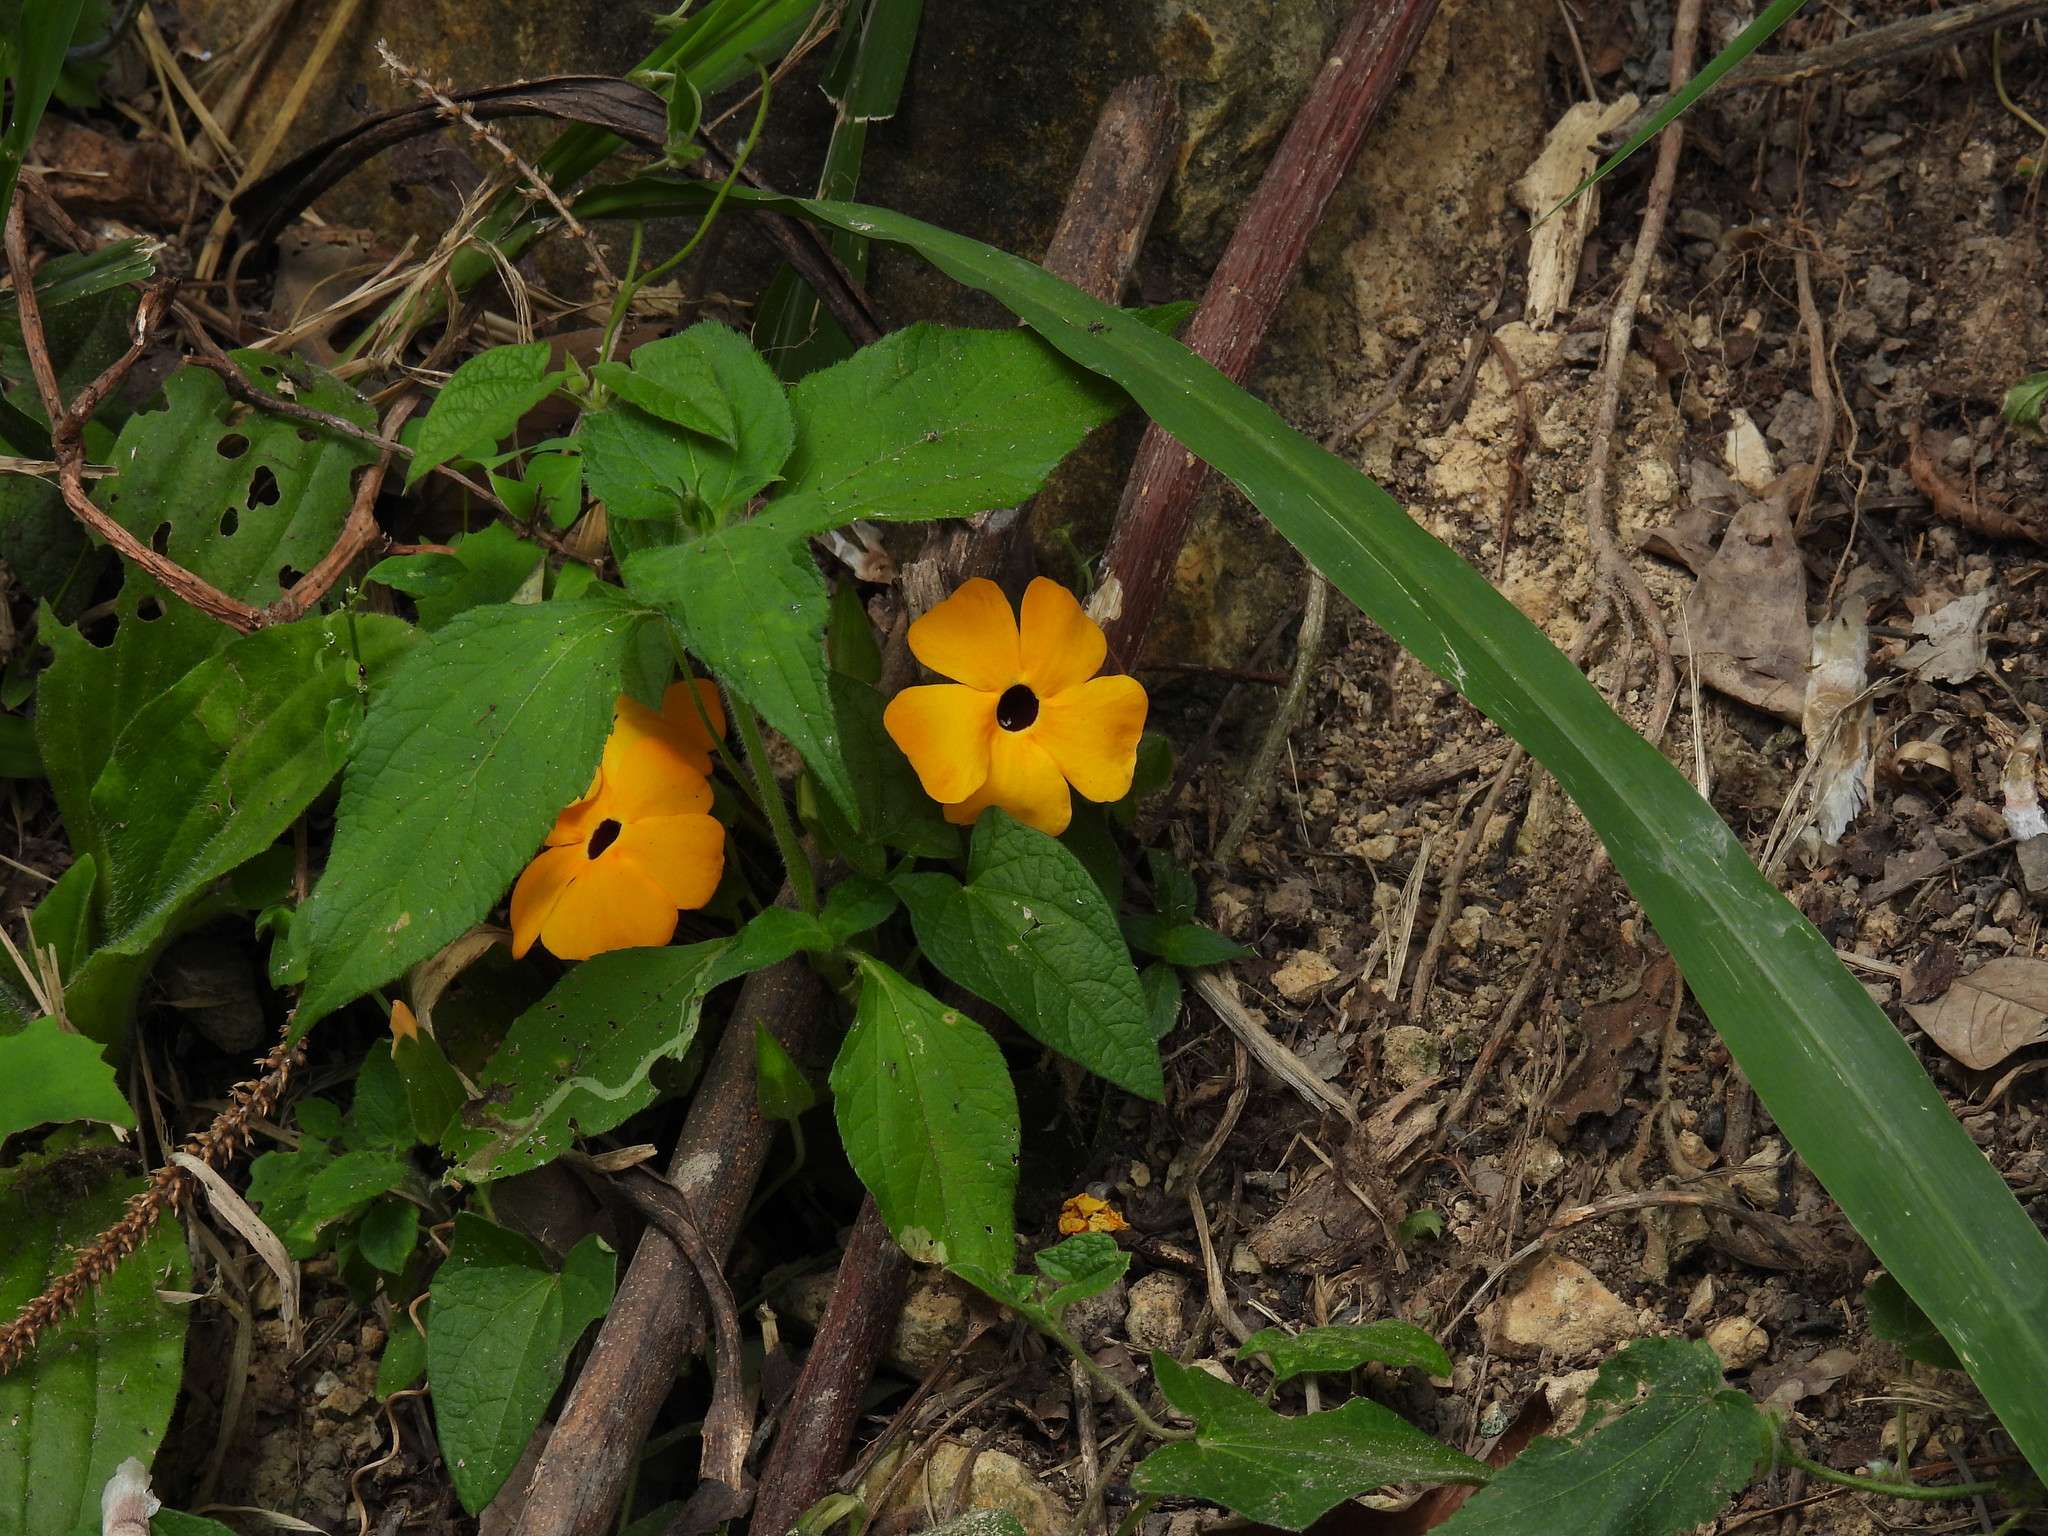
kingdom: Plantae
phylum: Tracheophyta
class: Magnoliopsida
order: Lamiales
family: Acanthaceae
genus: Thunbergia
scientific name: Thunbergia alata
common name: Blackeyed susan vine
